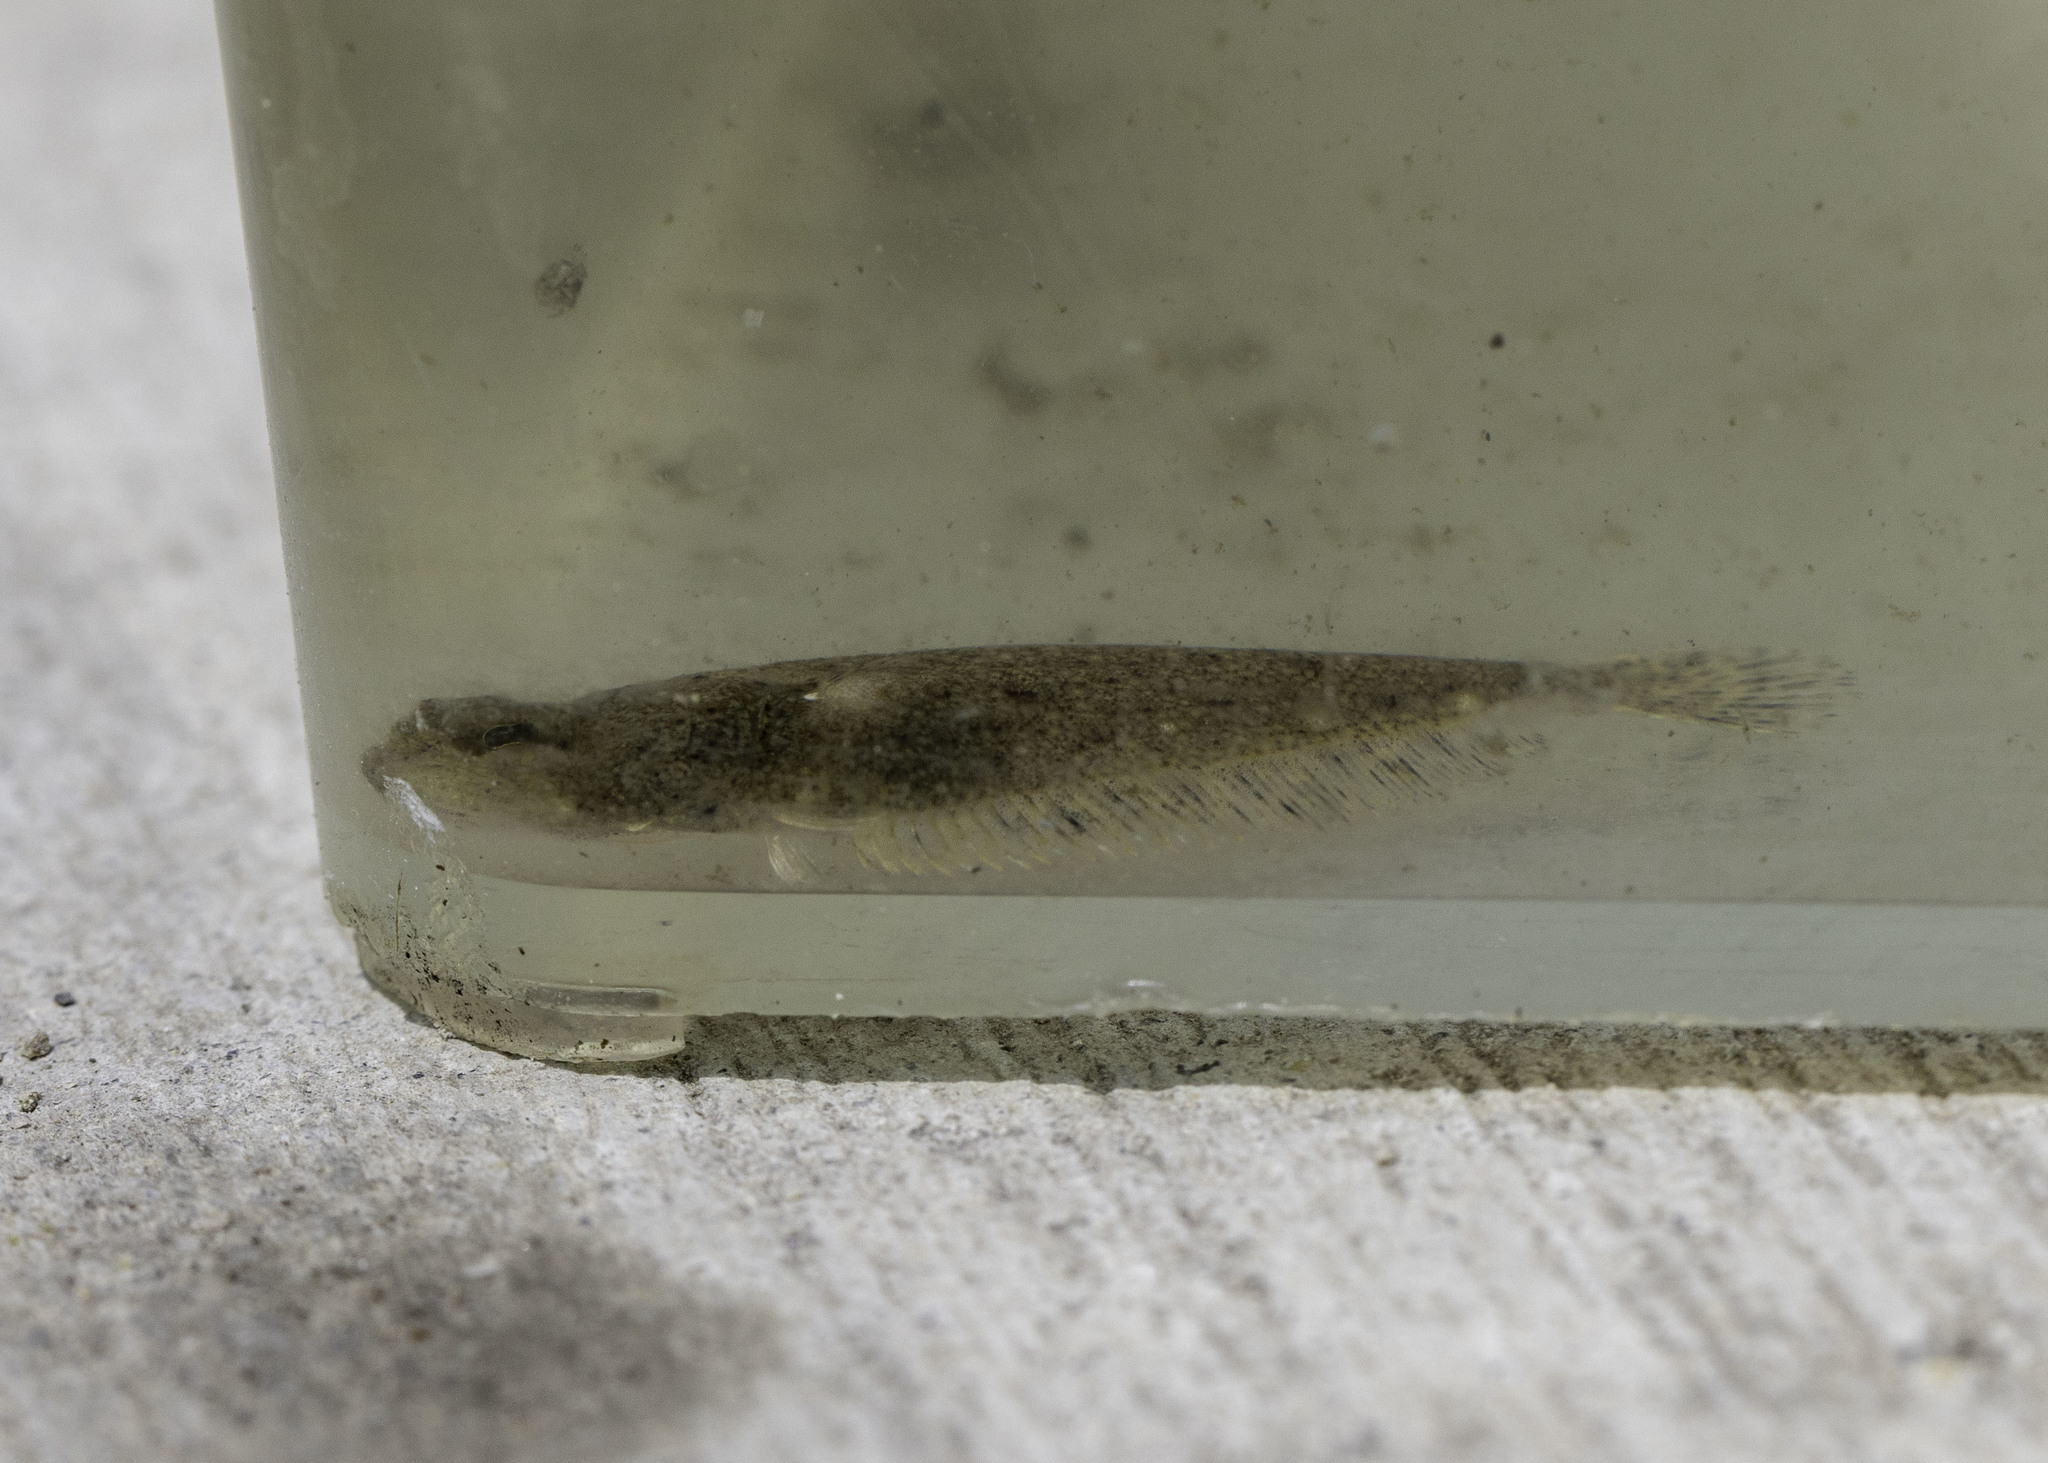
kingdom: Animalia
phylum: Chordata
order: Pleuronectiformes
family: Paralichthyidae
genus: Paralichthys
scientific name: Paralichthys californicus
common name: California halibut
